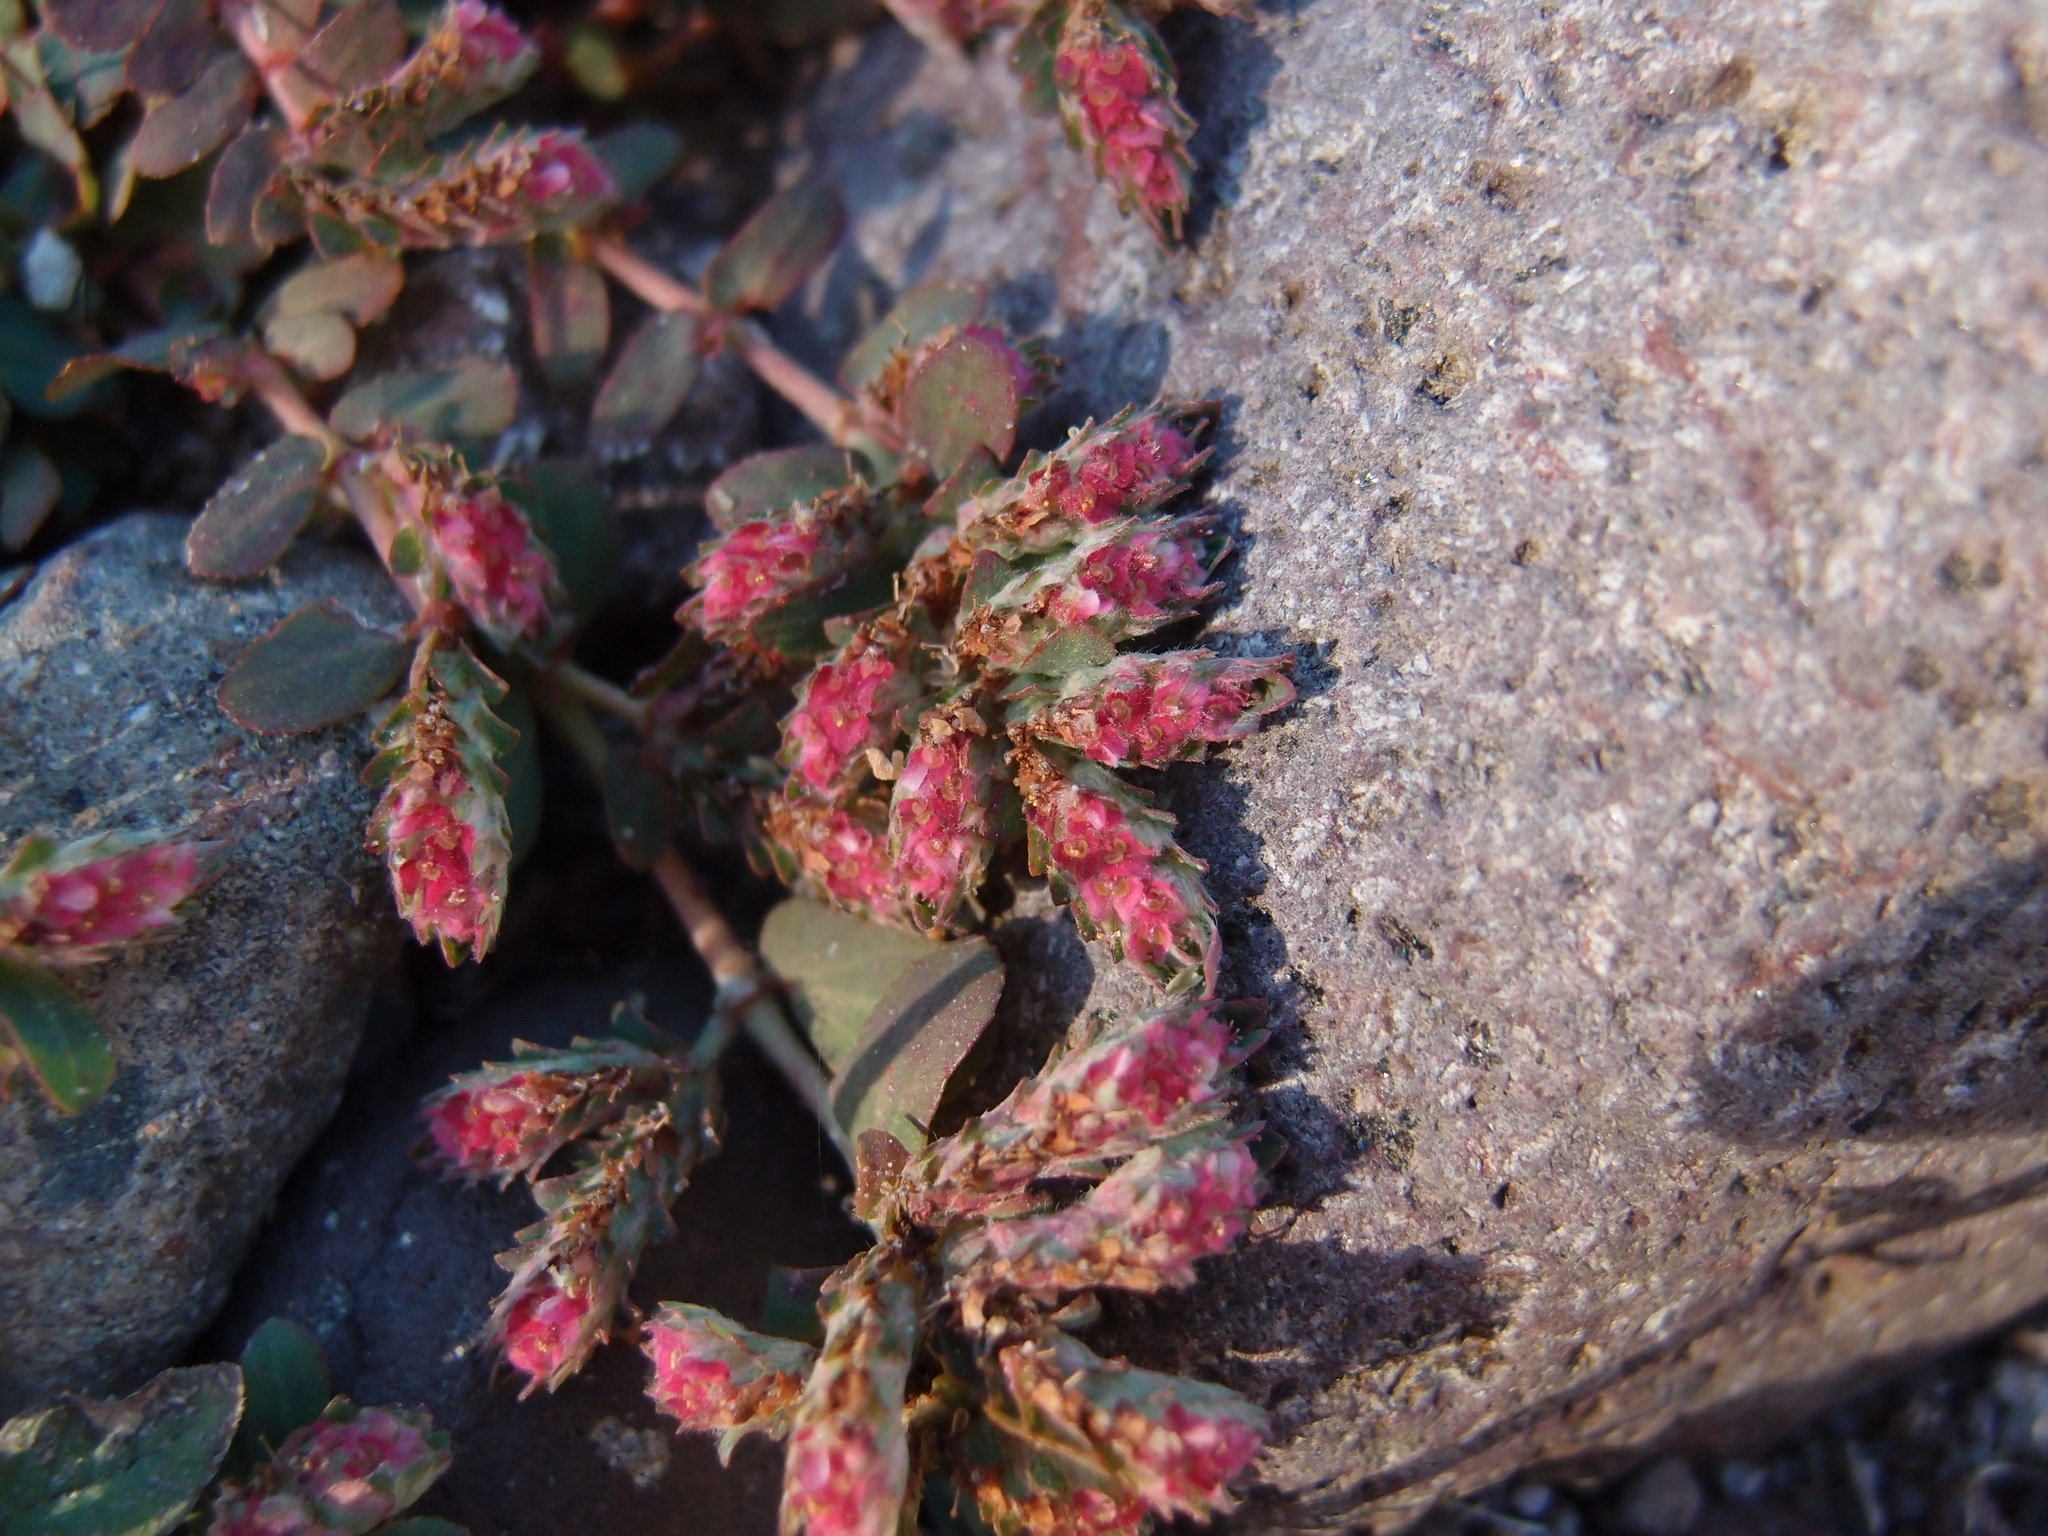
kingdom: Plantae
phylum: Tracheophyta
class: Magnoliopsida
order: Malpighiales
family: Euphorbiaceae
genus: Euphorbia
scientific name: Euphorbia indivisa
